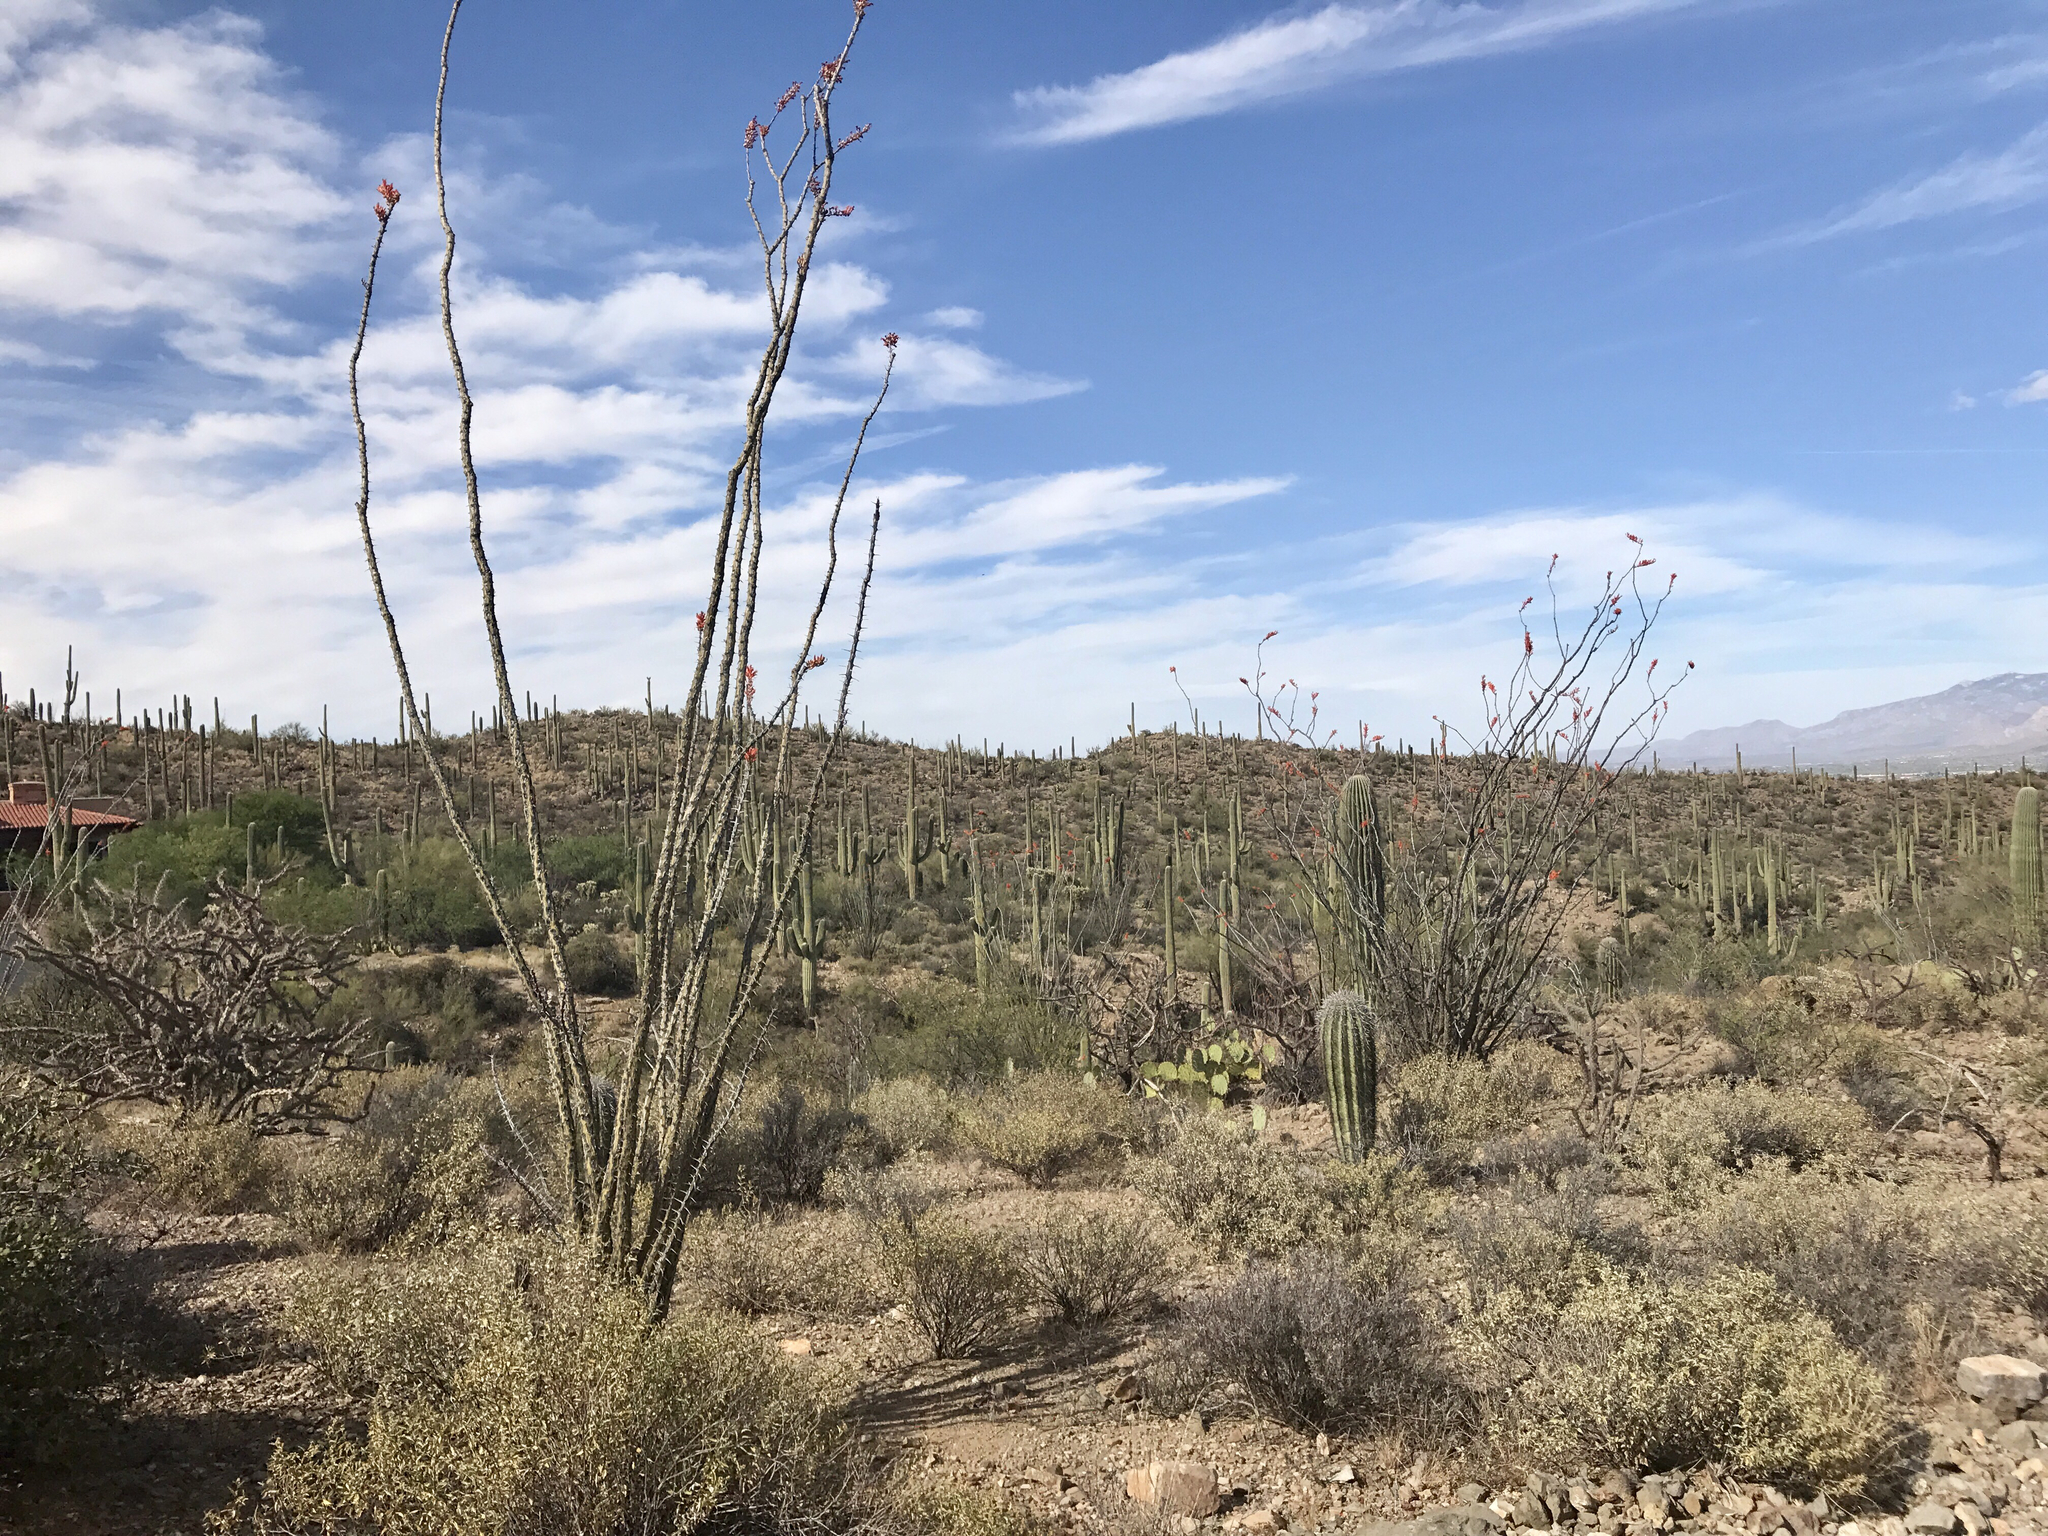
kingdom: Plantae
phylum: Tracheophyta
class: Magnoliopsida
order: Ericales
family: Fouquieriaceae
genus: Fouquieria
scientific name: Fouquieria splendens
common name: Vine-cactus
